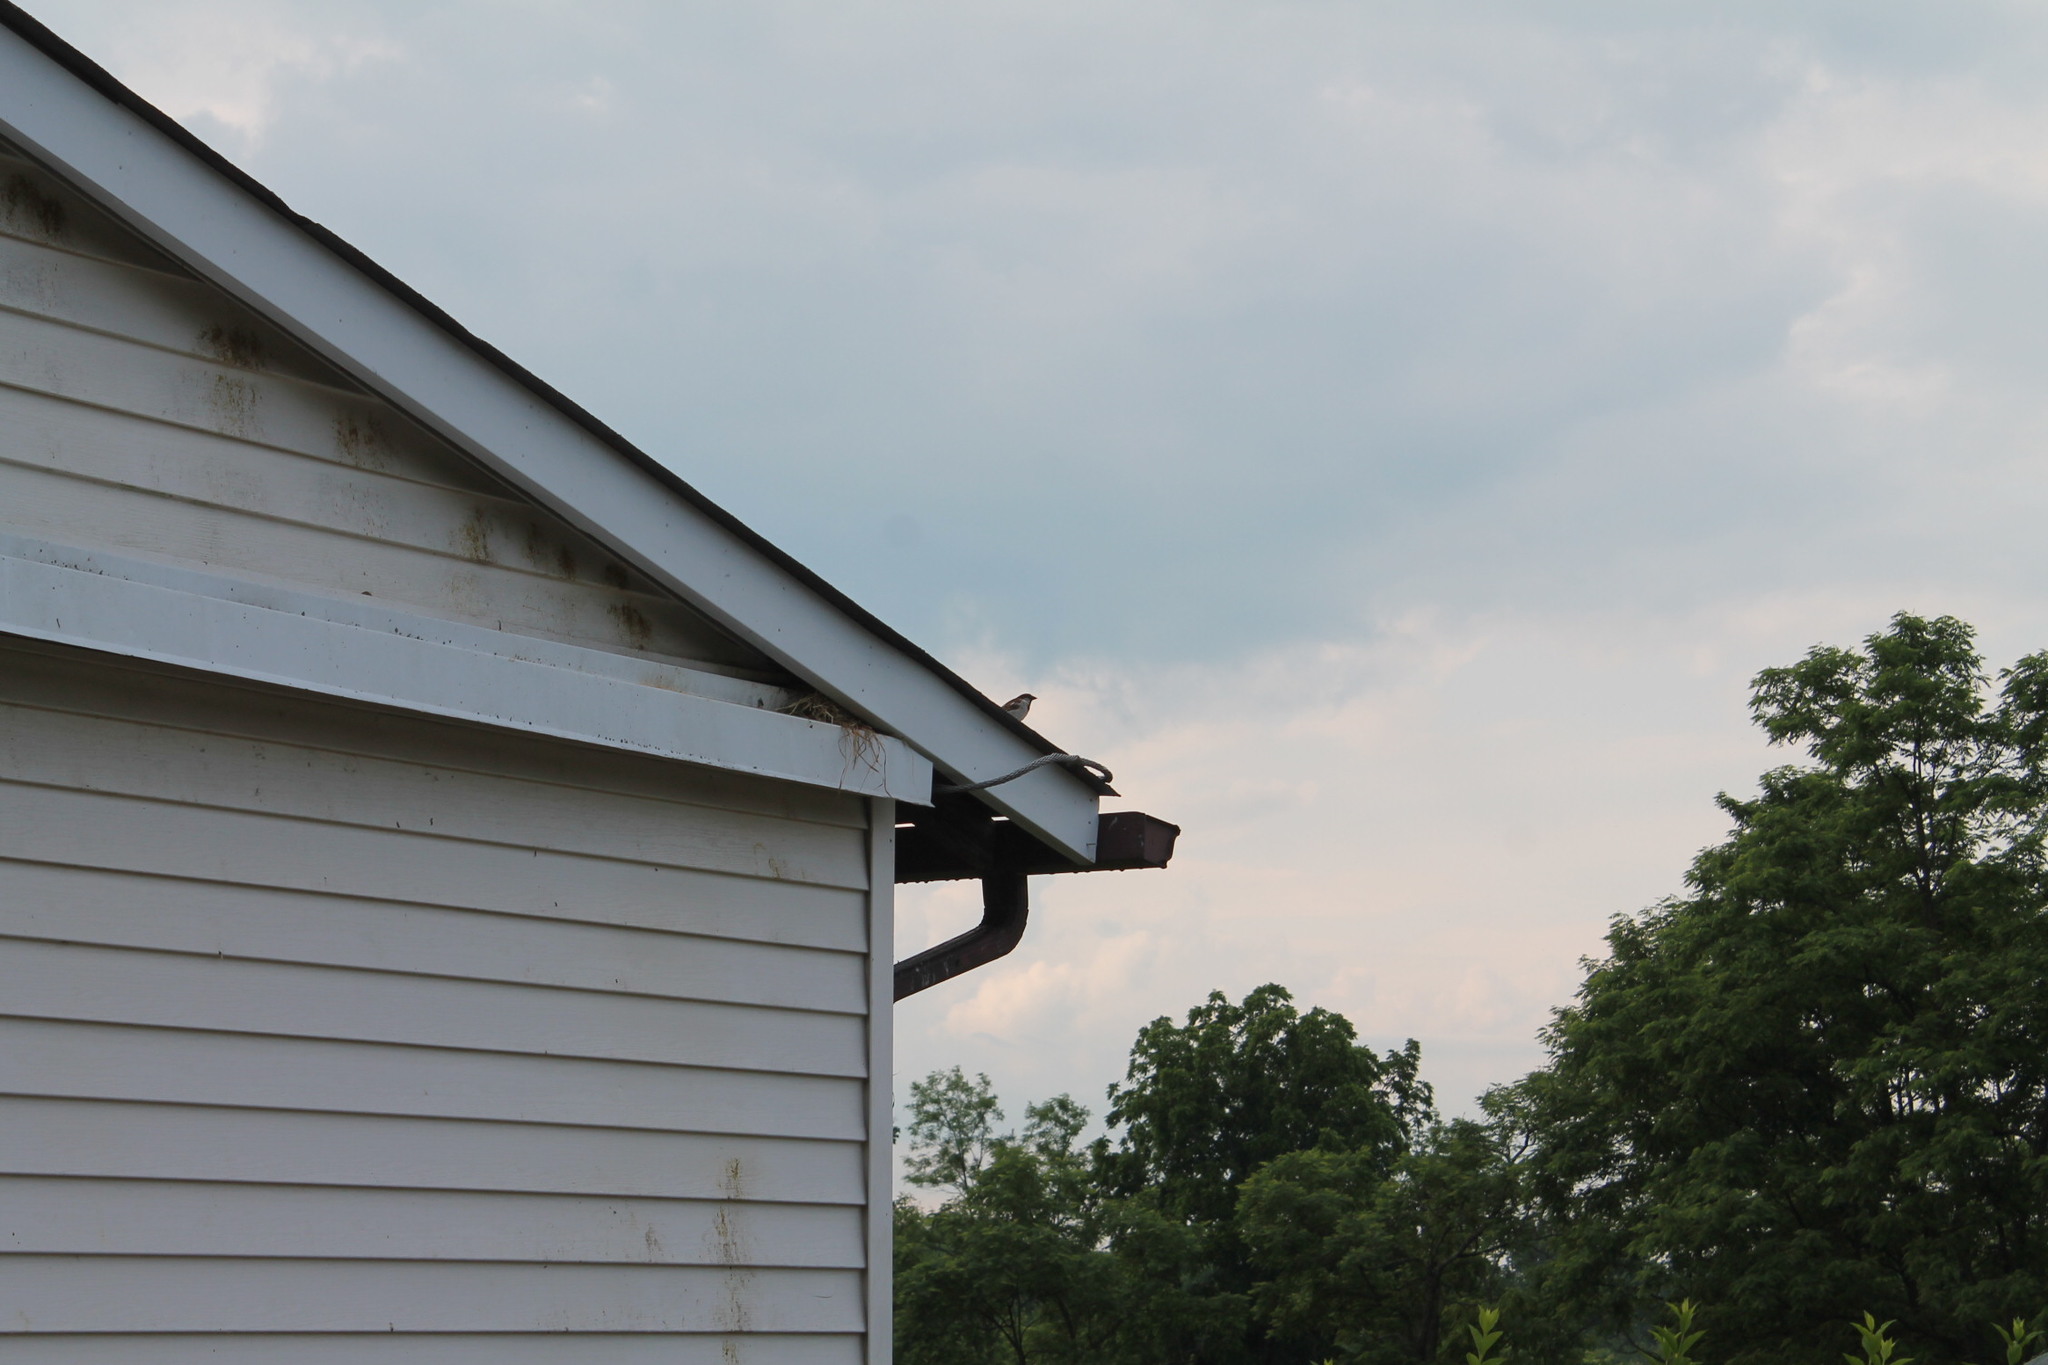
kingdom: Animalia
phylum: Chordata
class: Aves
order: Passeriformes
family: Passeridae
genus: Passer
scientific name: Passer domesticus
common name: House sparrow
